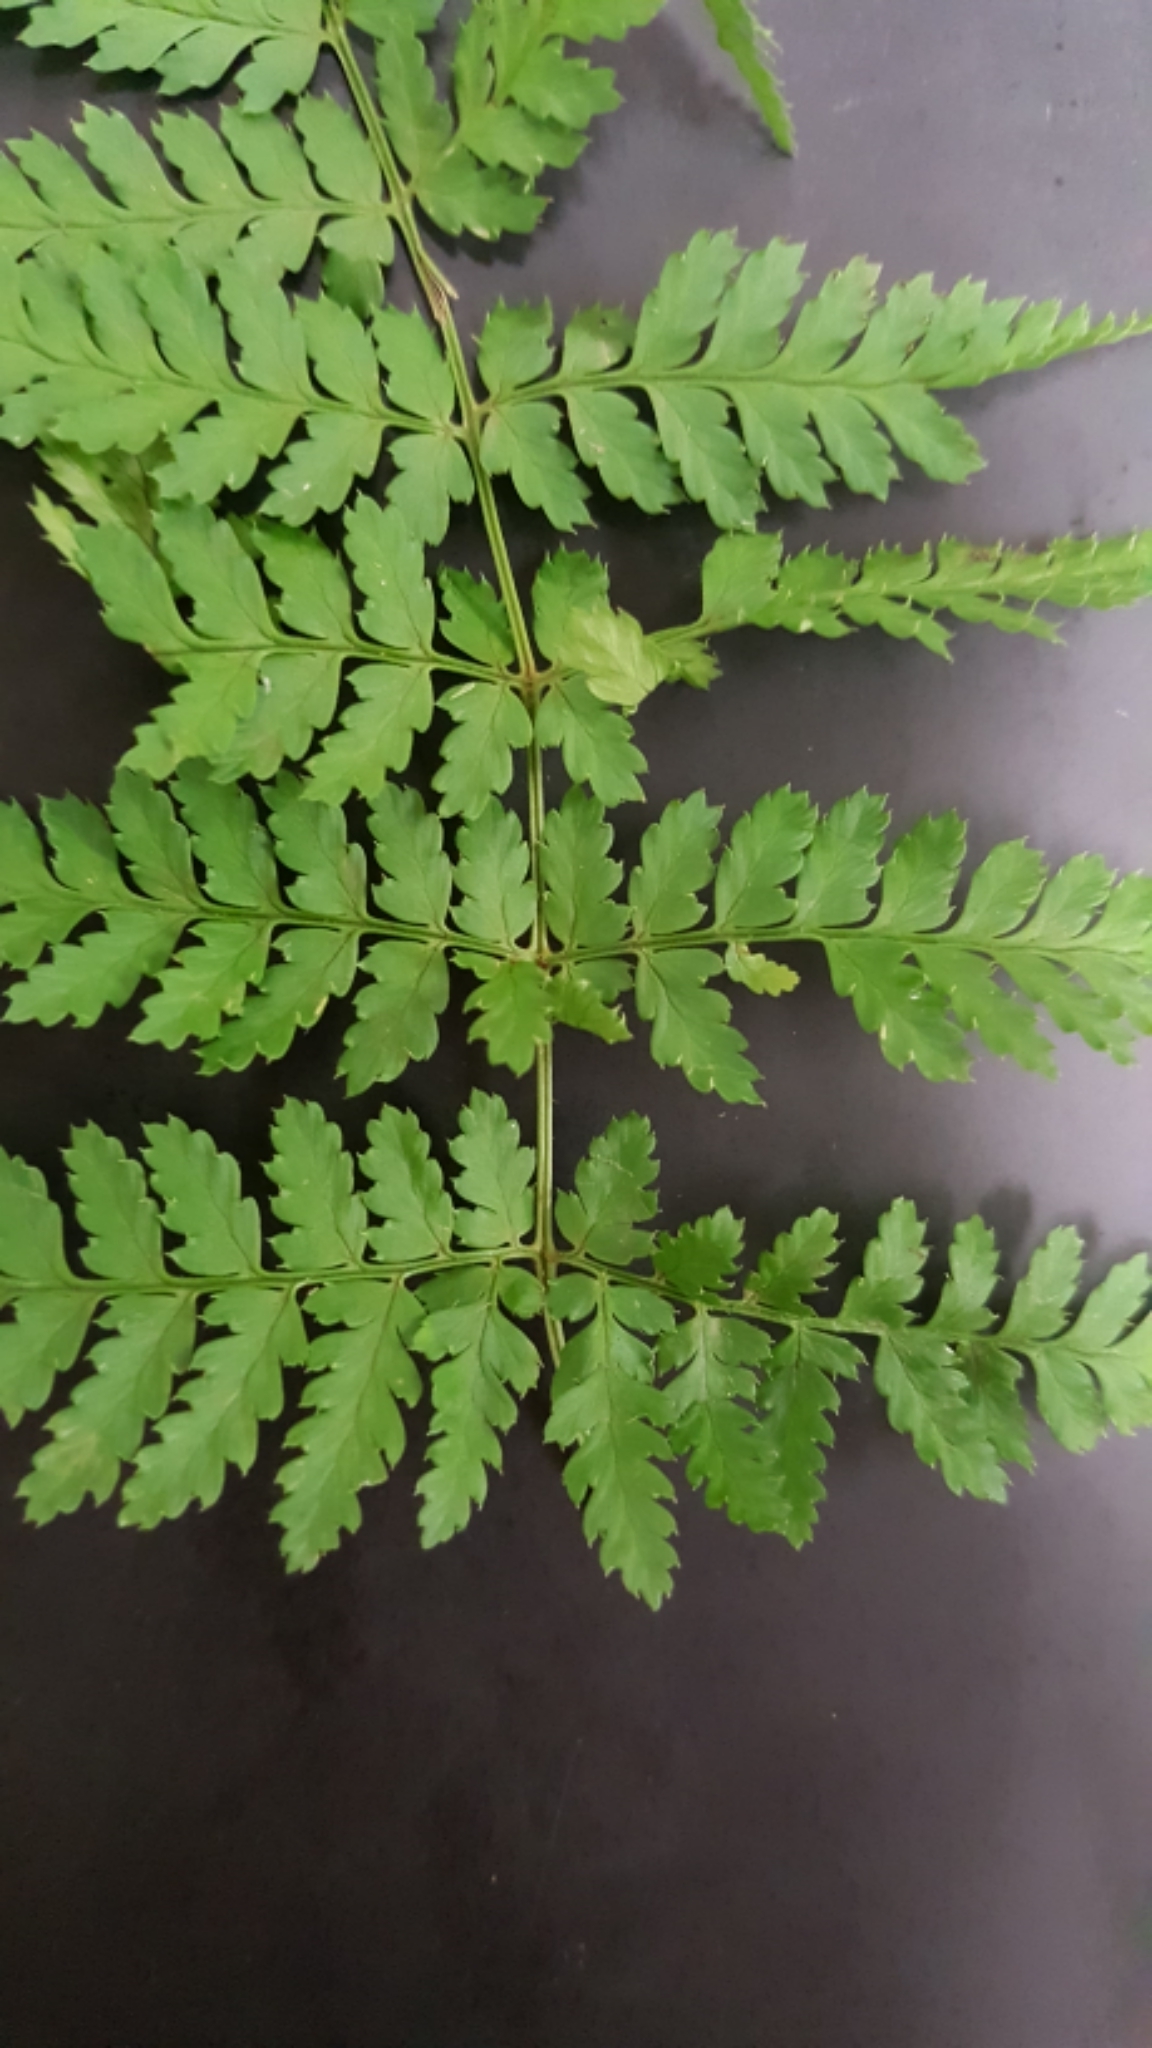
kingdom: Plantae
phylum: Tracheophyta
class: Polypodiopsida
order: Polypodiales
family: Dryopteridaceae
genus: Dryopteris
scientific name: Dryopteris
